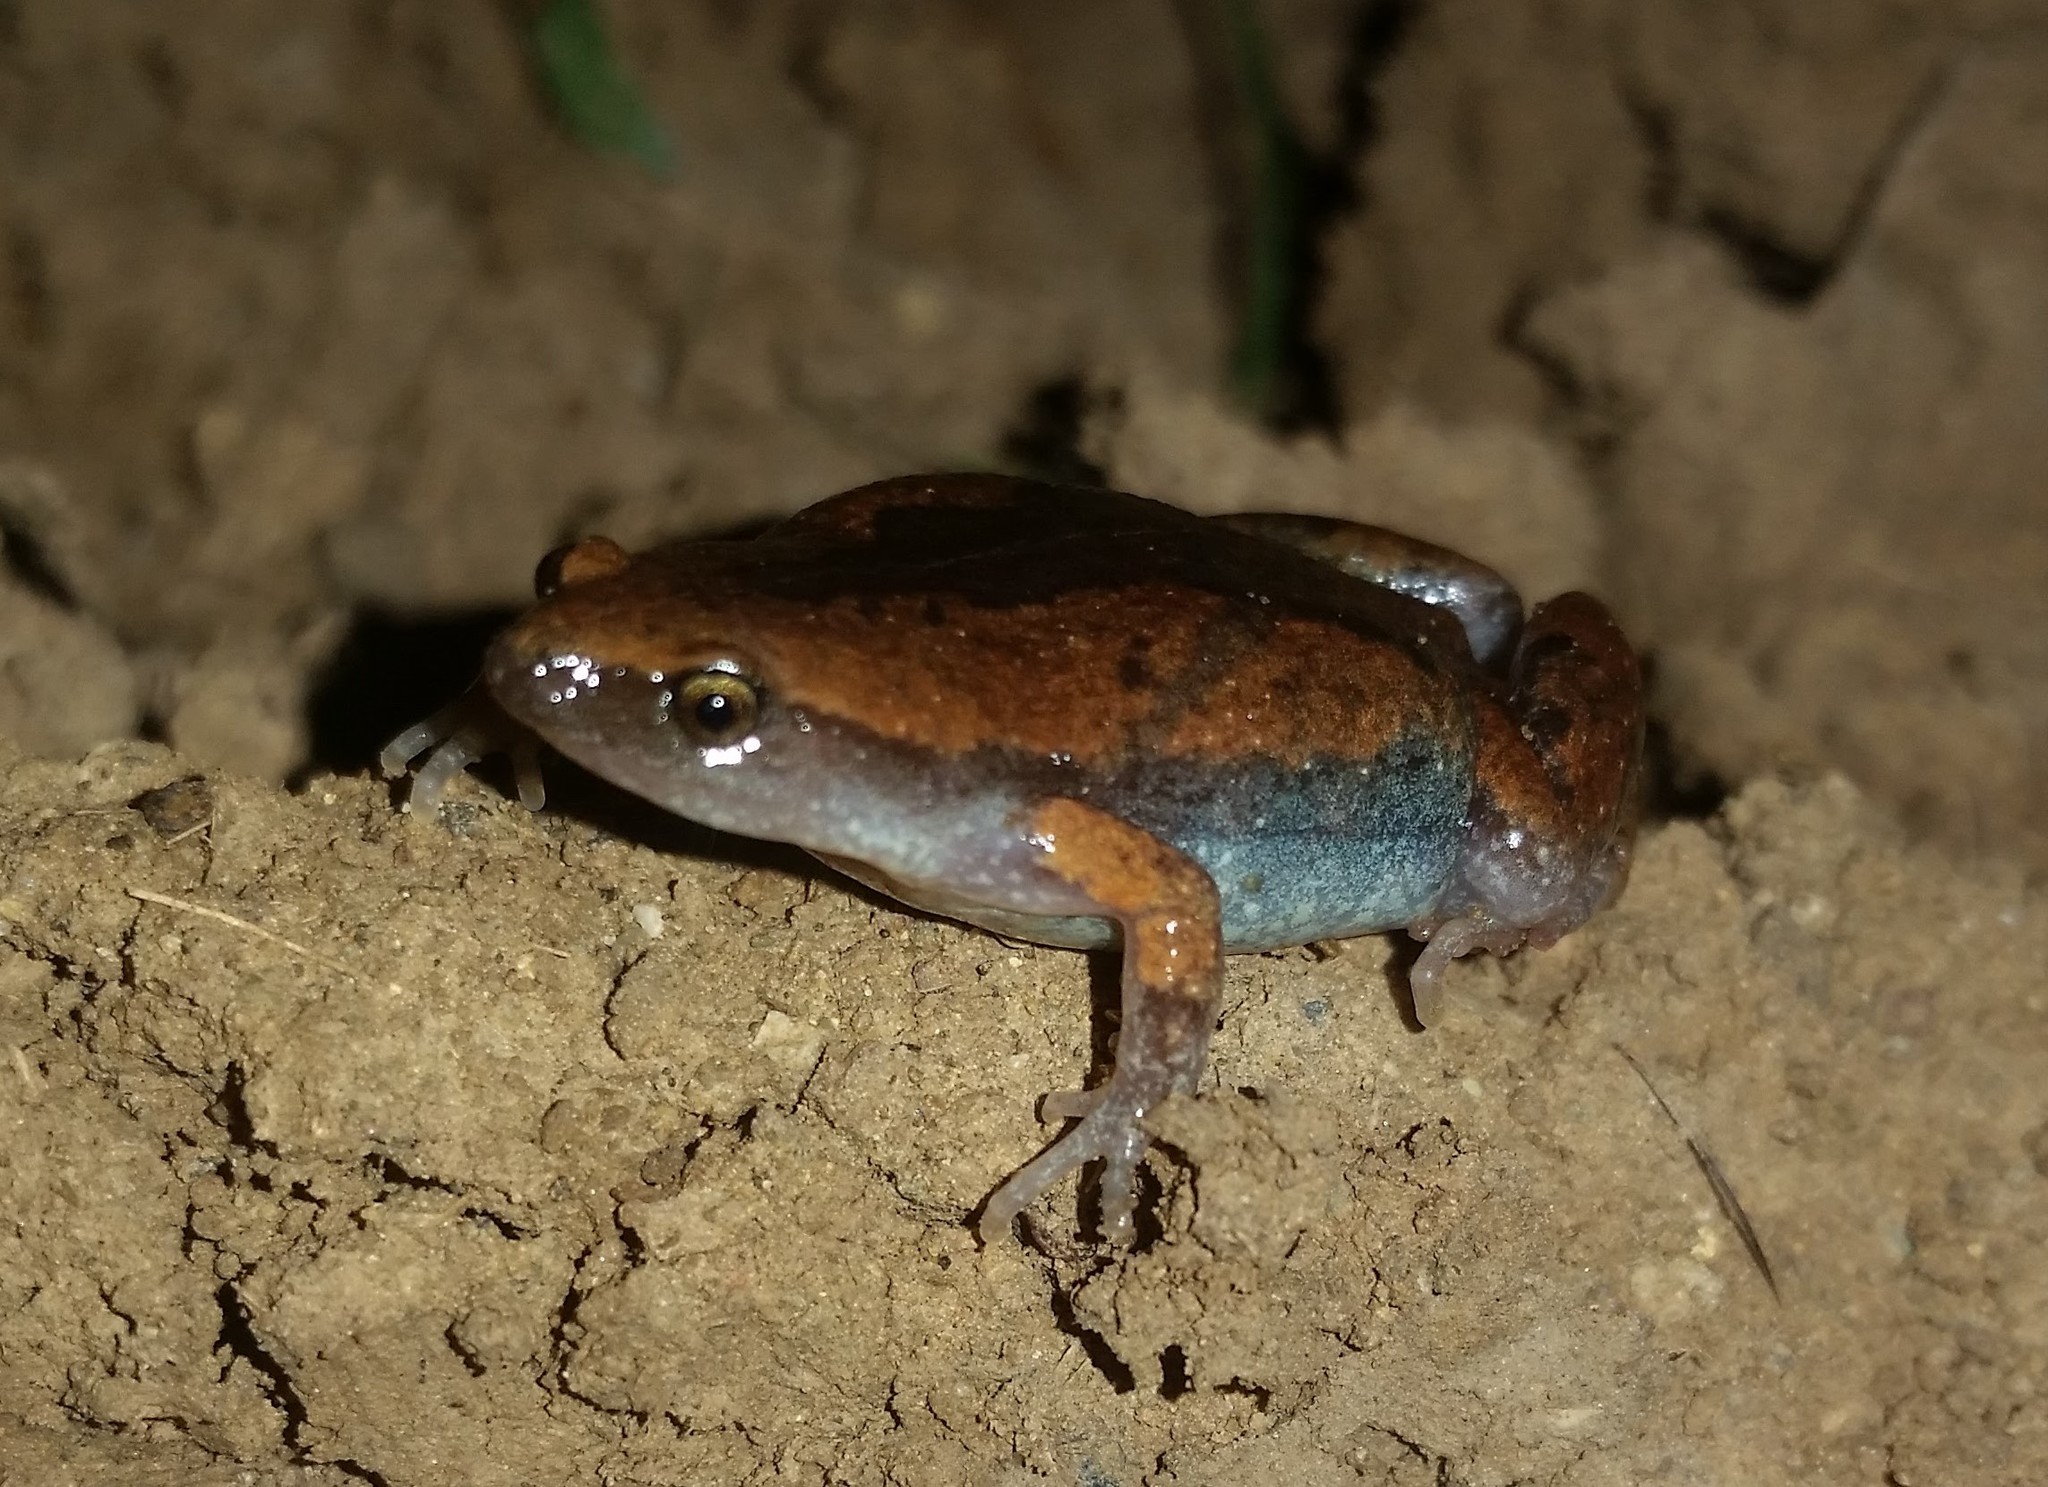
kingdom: Animalia
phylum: Chordata
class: Amphibia
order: Anura
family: Microhylidae
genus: Elachistocleis
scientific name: Elachistocleis panamensis
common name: Panama humming frog
